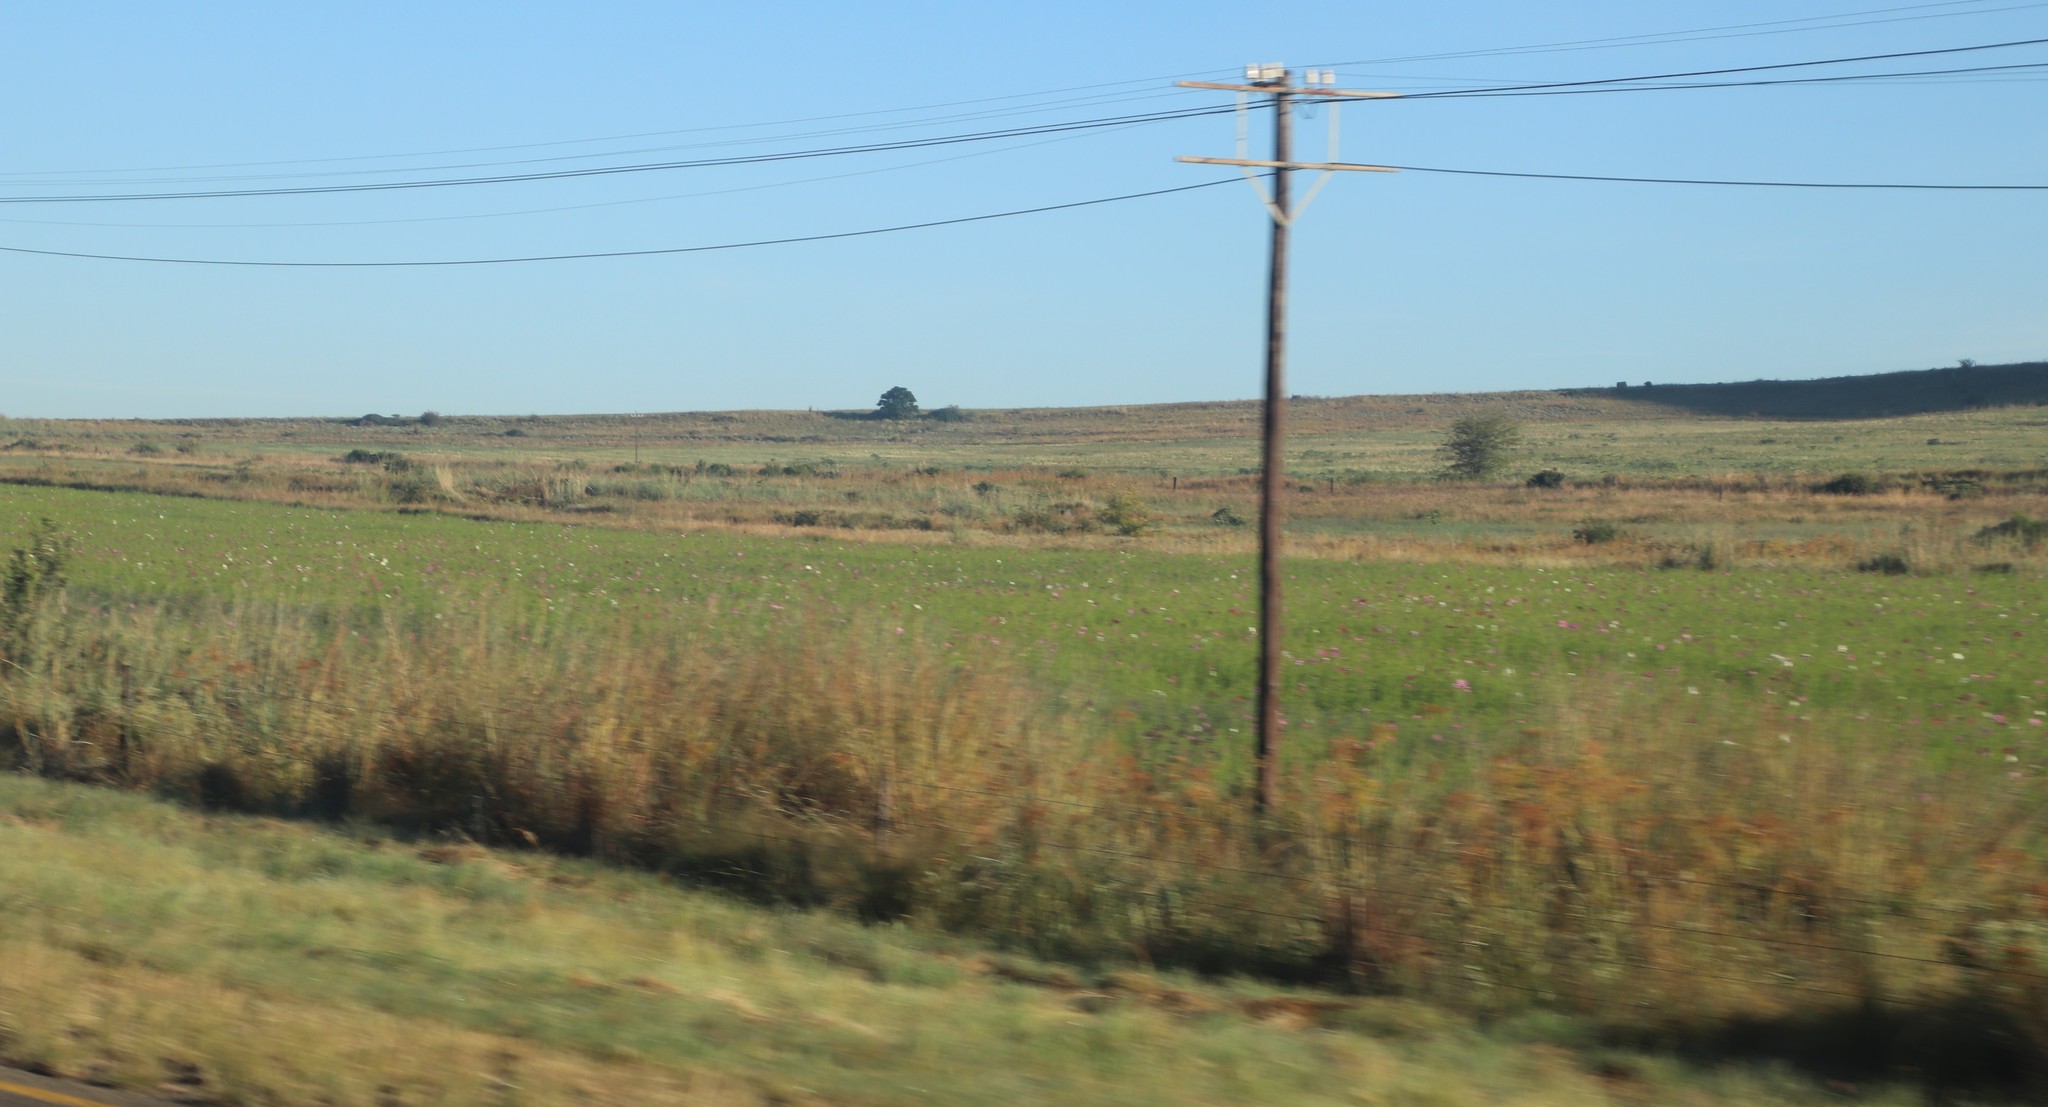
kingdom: Plantae
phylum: Tracheophyta
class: Magnoliopsida
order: Asterales
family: Asteraceae
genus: Cosmos
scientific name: Cosmos bipinnatus
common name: Garden cosmos
